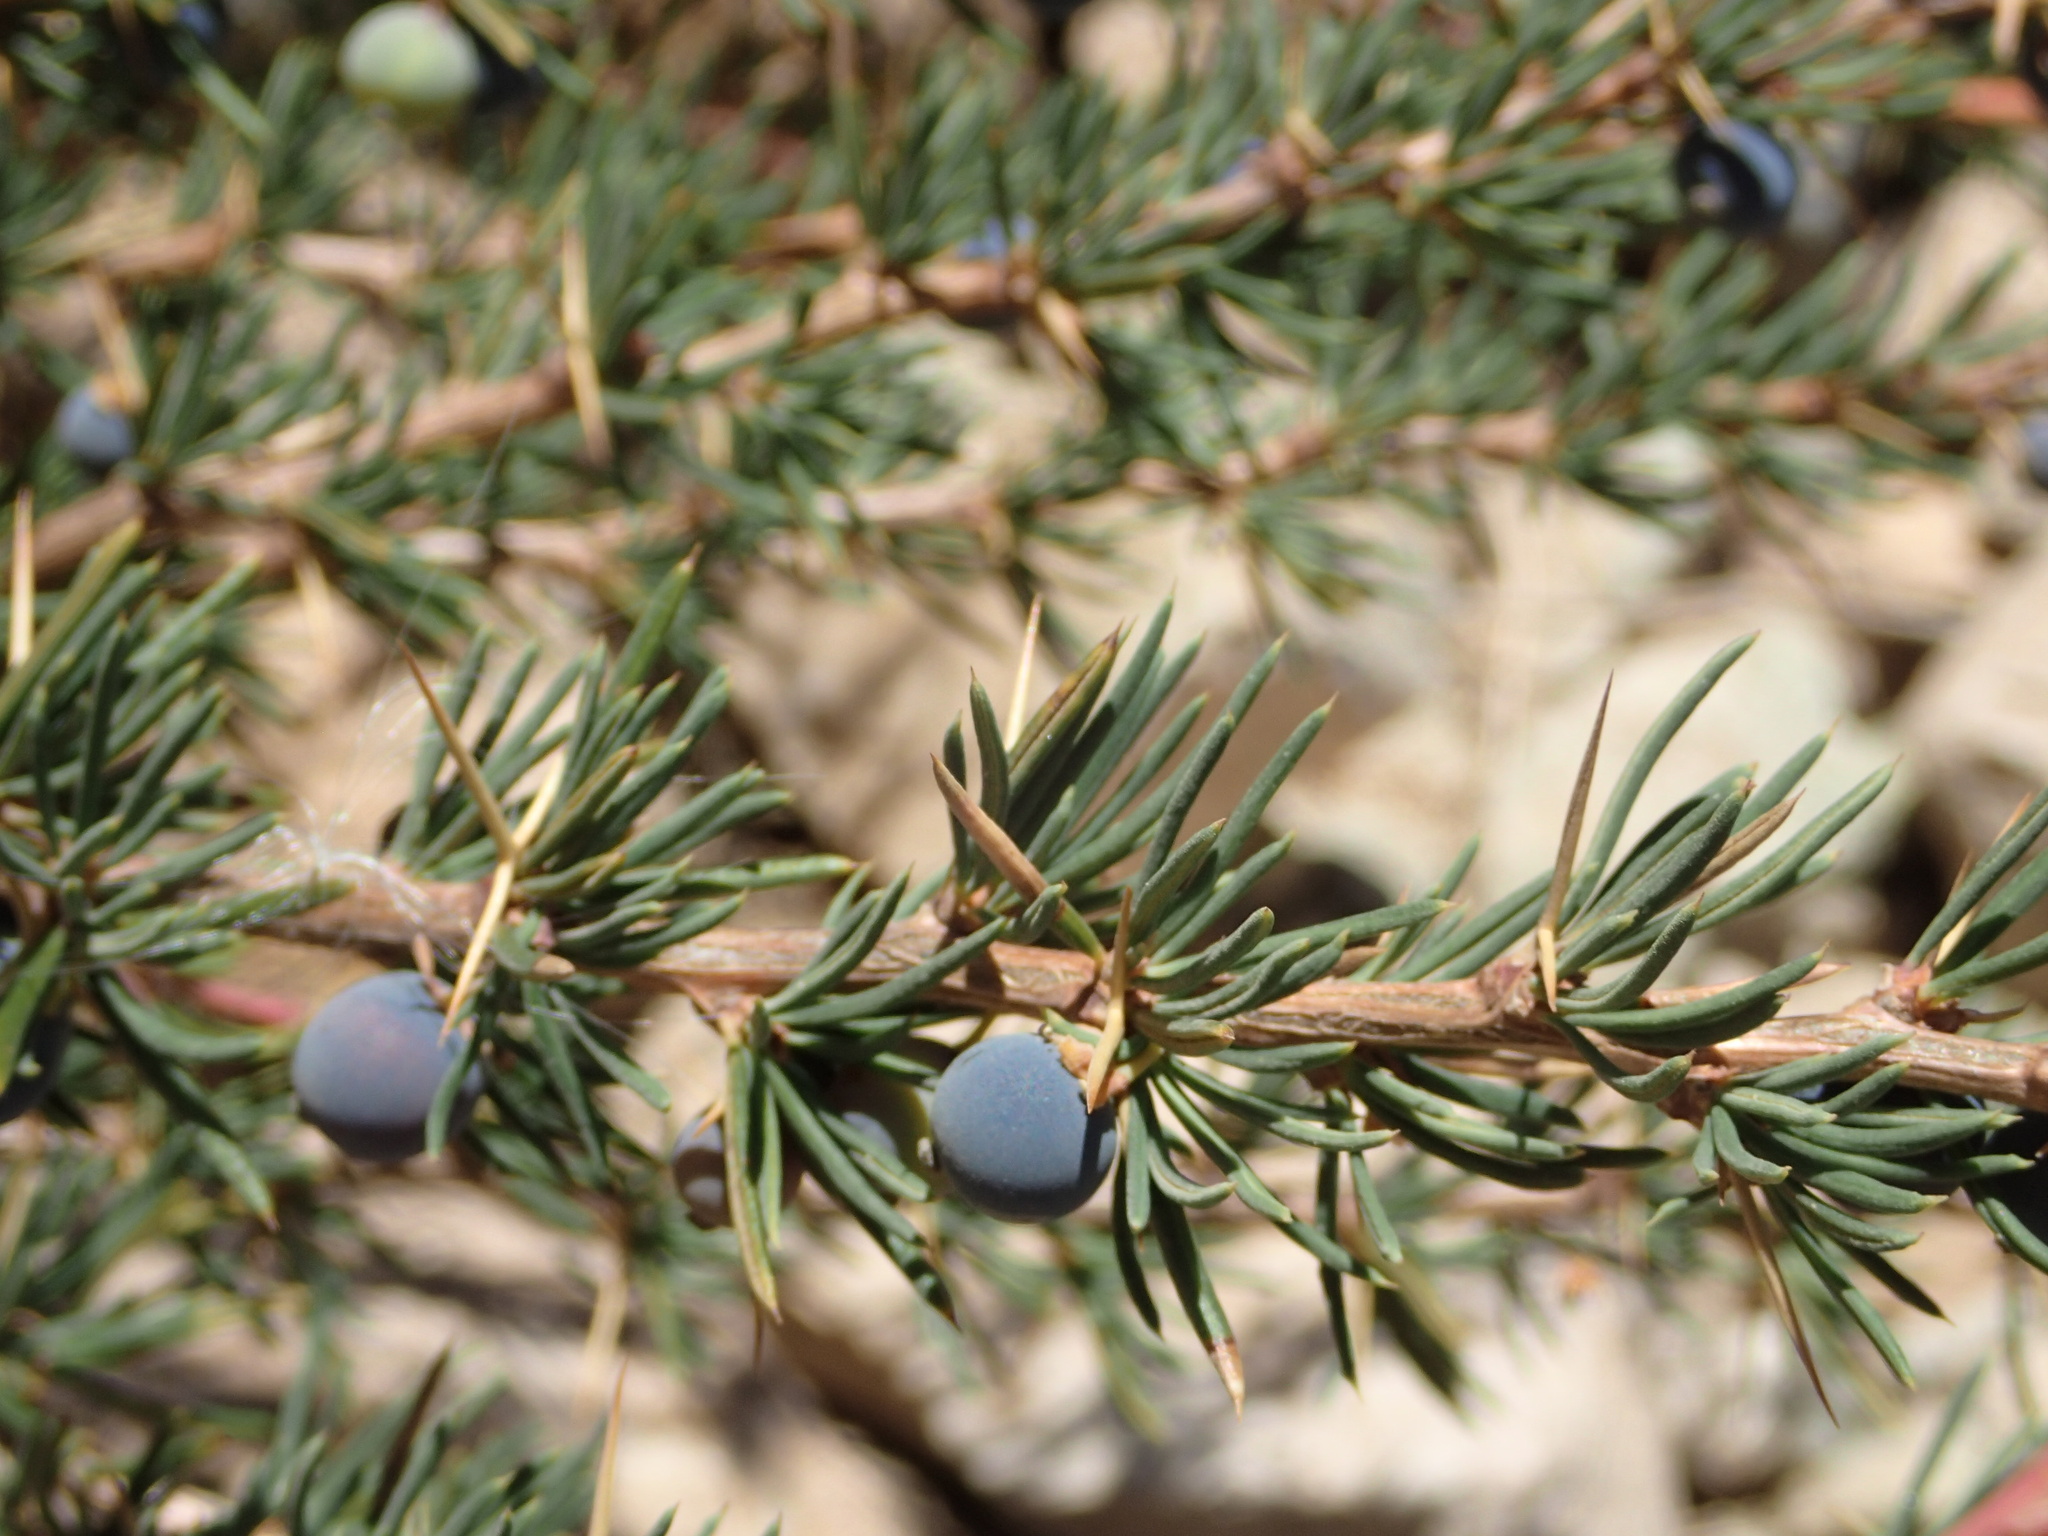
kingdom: Plantae
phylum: Tracheophyta
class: Magnoliopsida
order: Ranunculales
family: Berberidaceae
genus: Berberis
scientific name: Berberis empetrifolia
